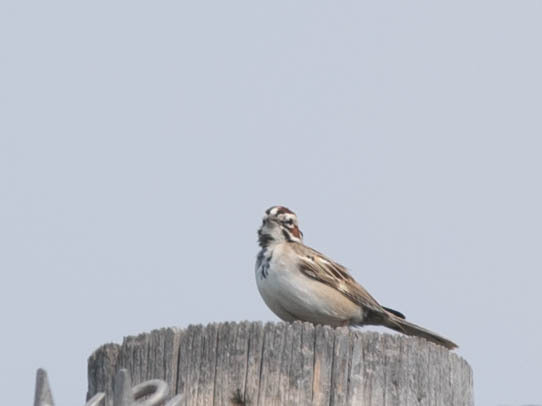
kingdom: Animalia
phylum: Chordata
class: Aves
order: Passeriformes
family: Passerellidae
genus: Chondestes
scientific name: Chondestes grammacus
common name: Lark sparrow
